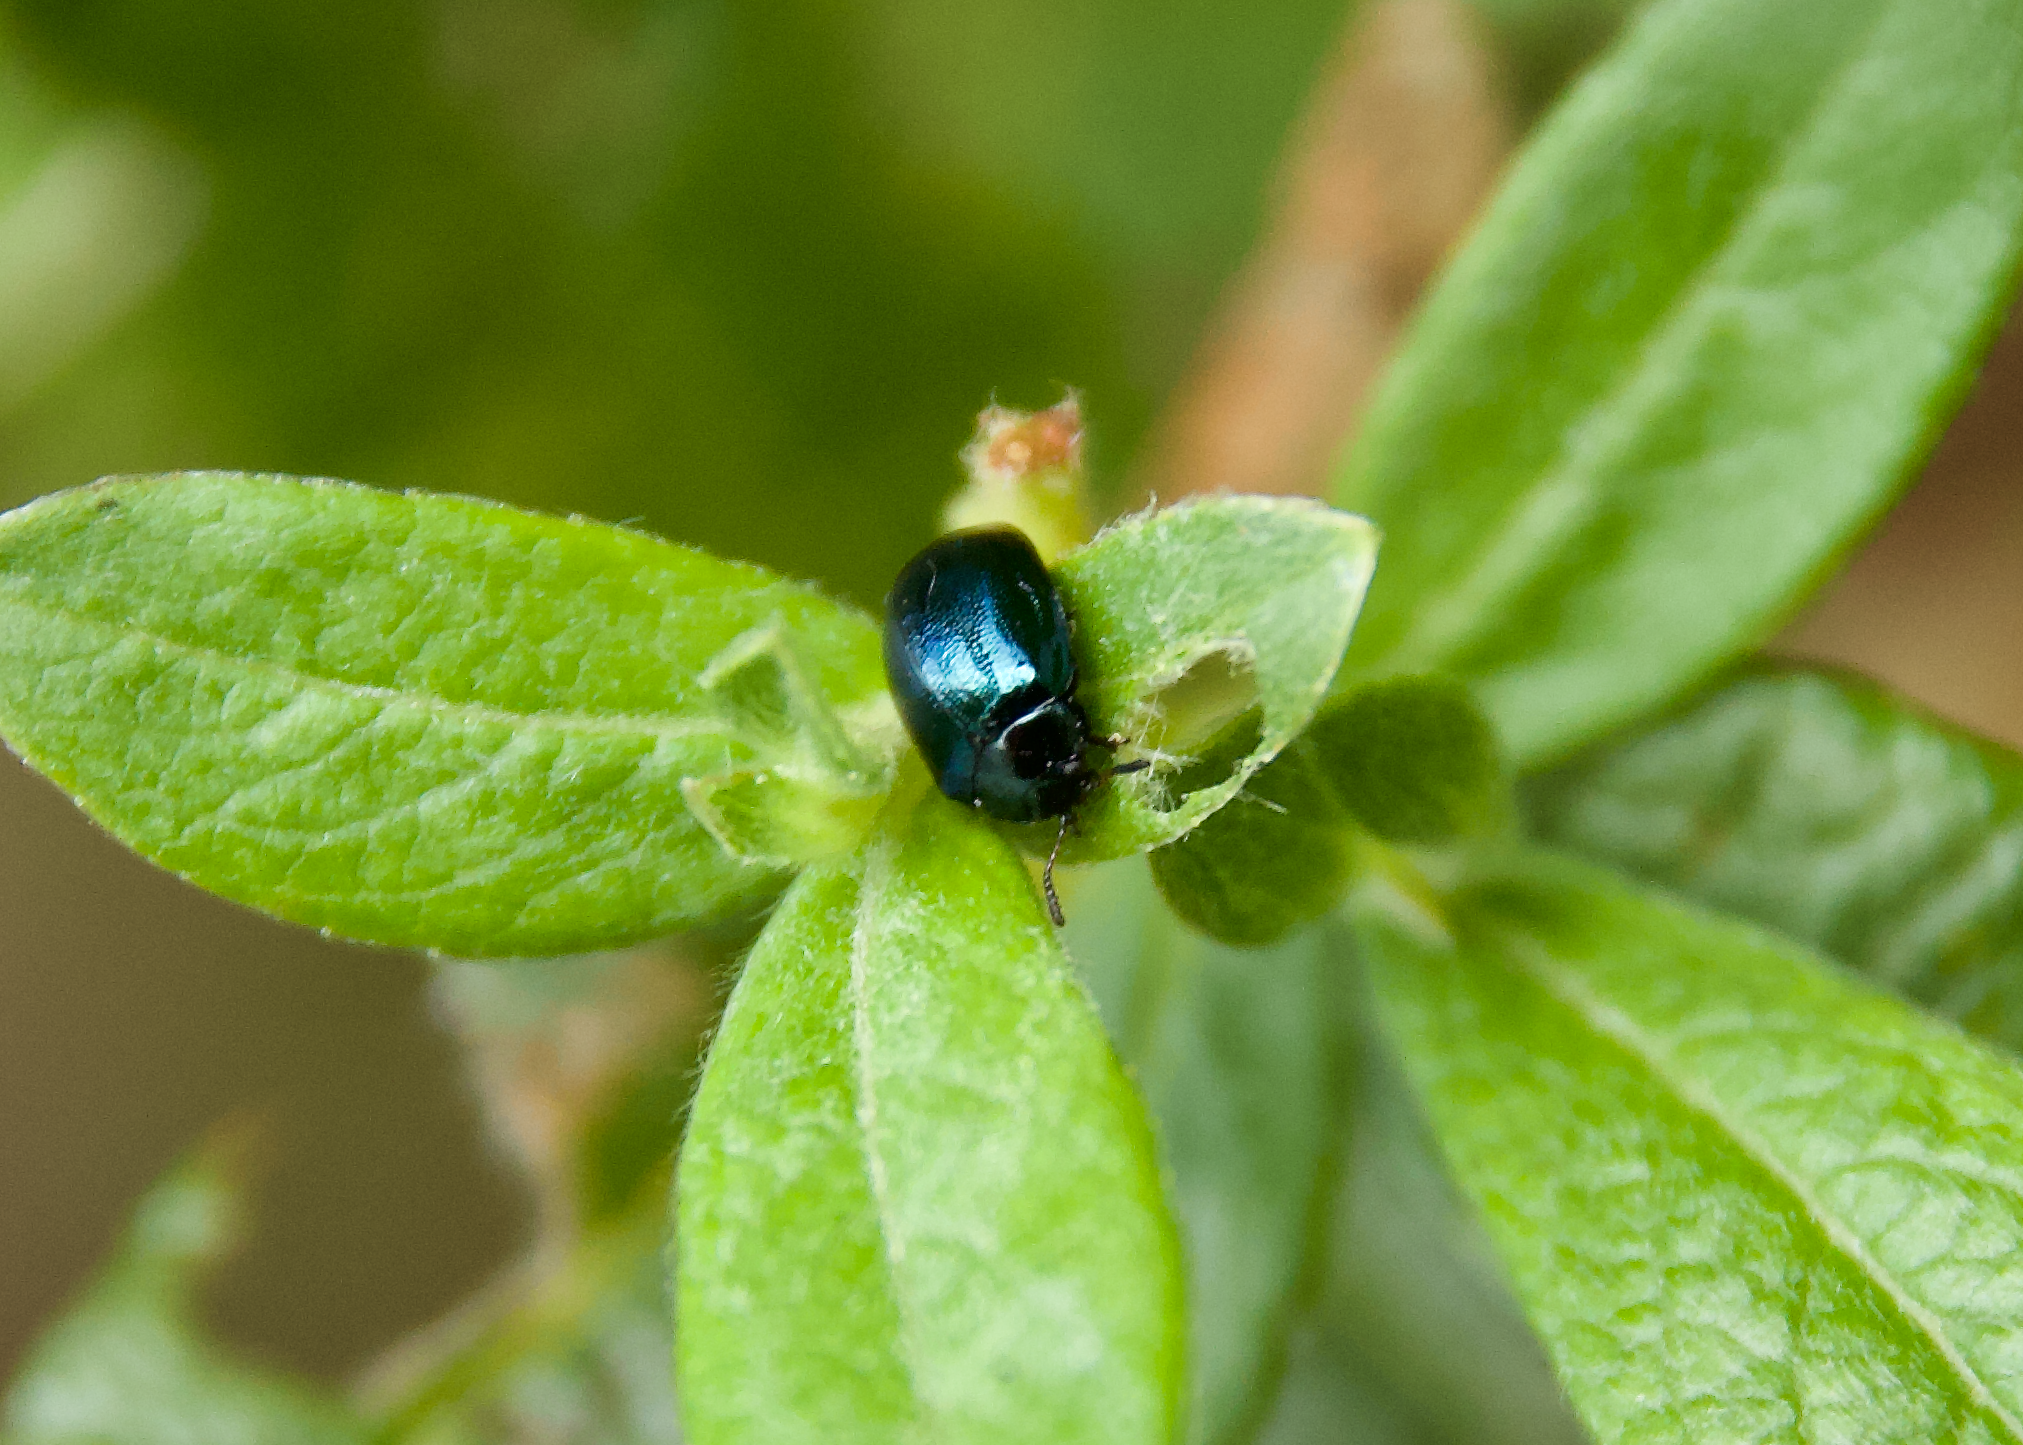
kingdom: Animalia
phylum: Arthropoda
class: Insecta
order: Coleoptera
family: Chrysomelidae
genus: Plagiodera
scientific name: Plagiodera versicolora
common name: Imported willow leaf beetle
